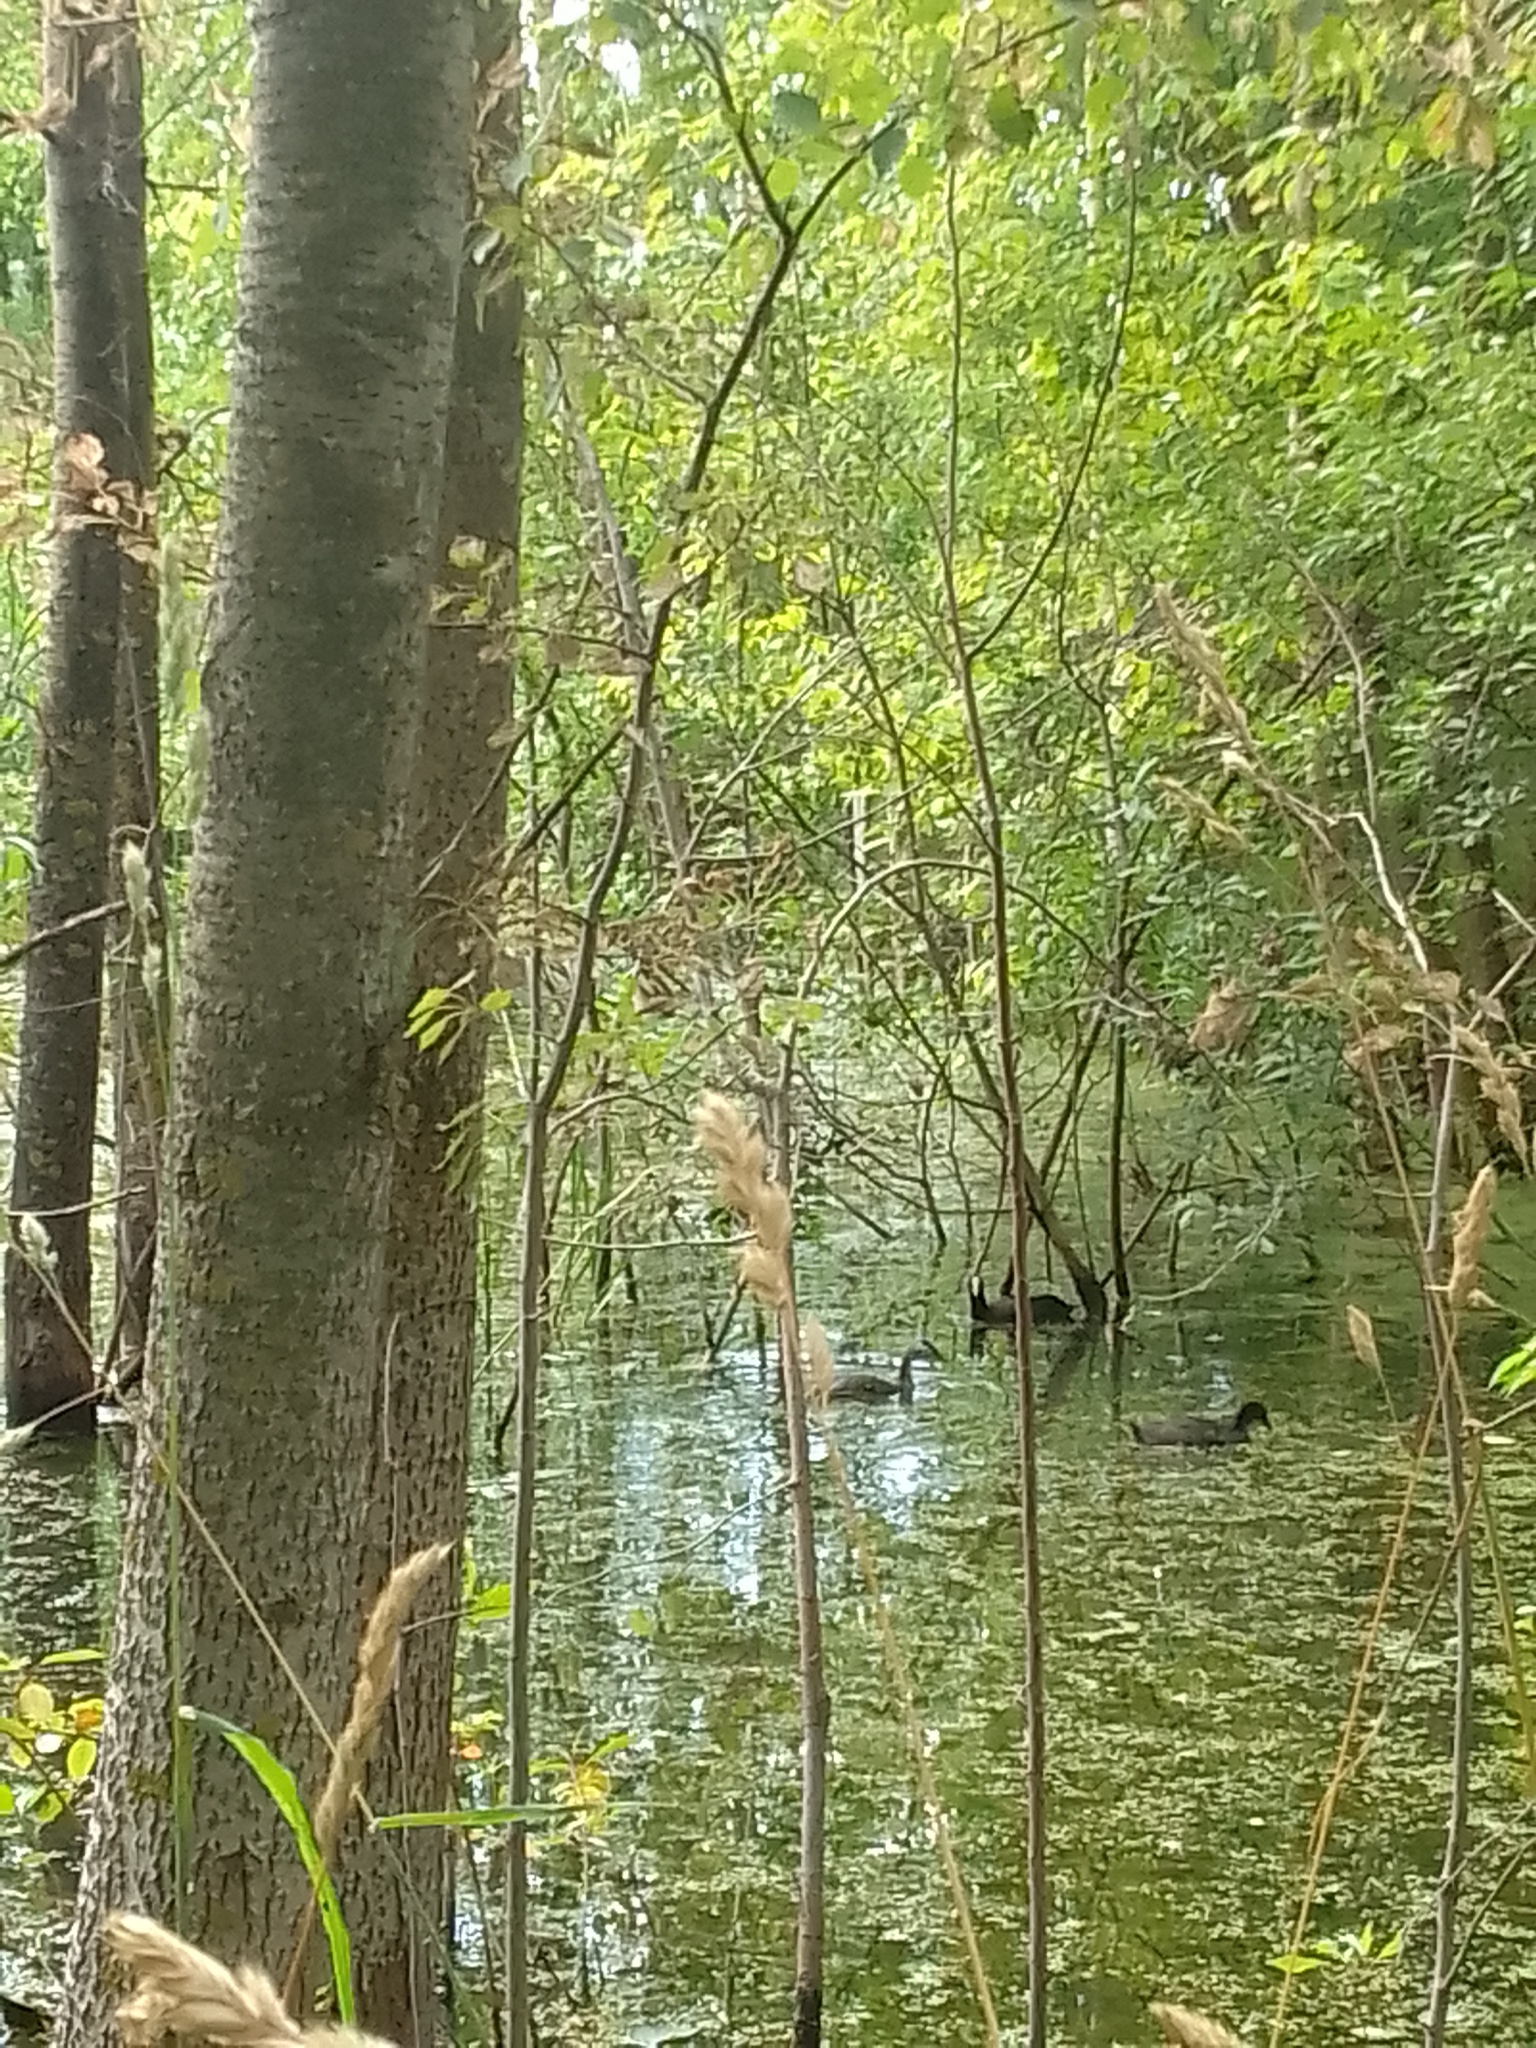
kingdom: Animalia
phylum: Chordata
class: Aves
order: Podicipediformes
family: Podicipedidae
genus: Podiceps
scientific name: Podiceps cristatus
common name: Great crested grebe
